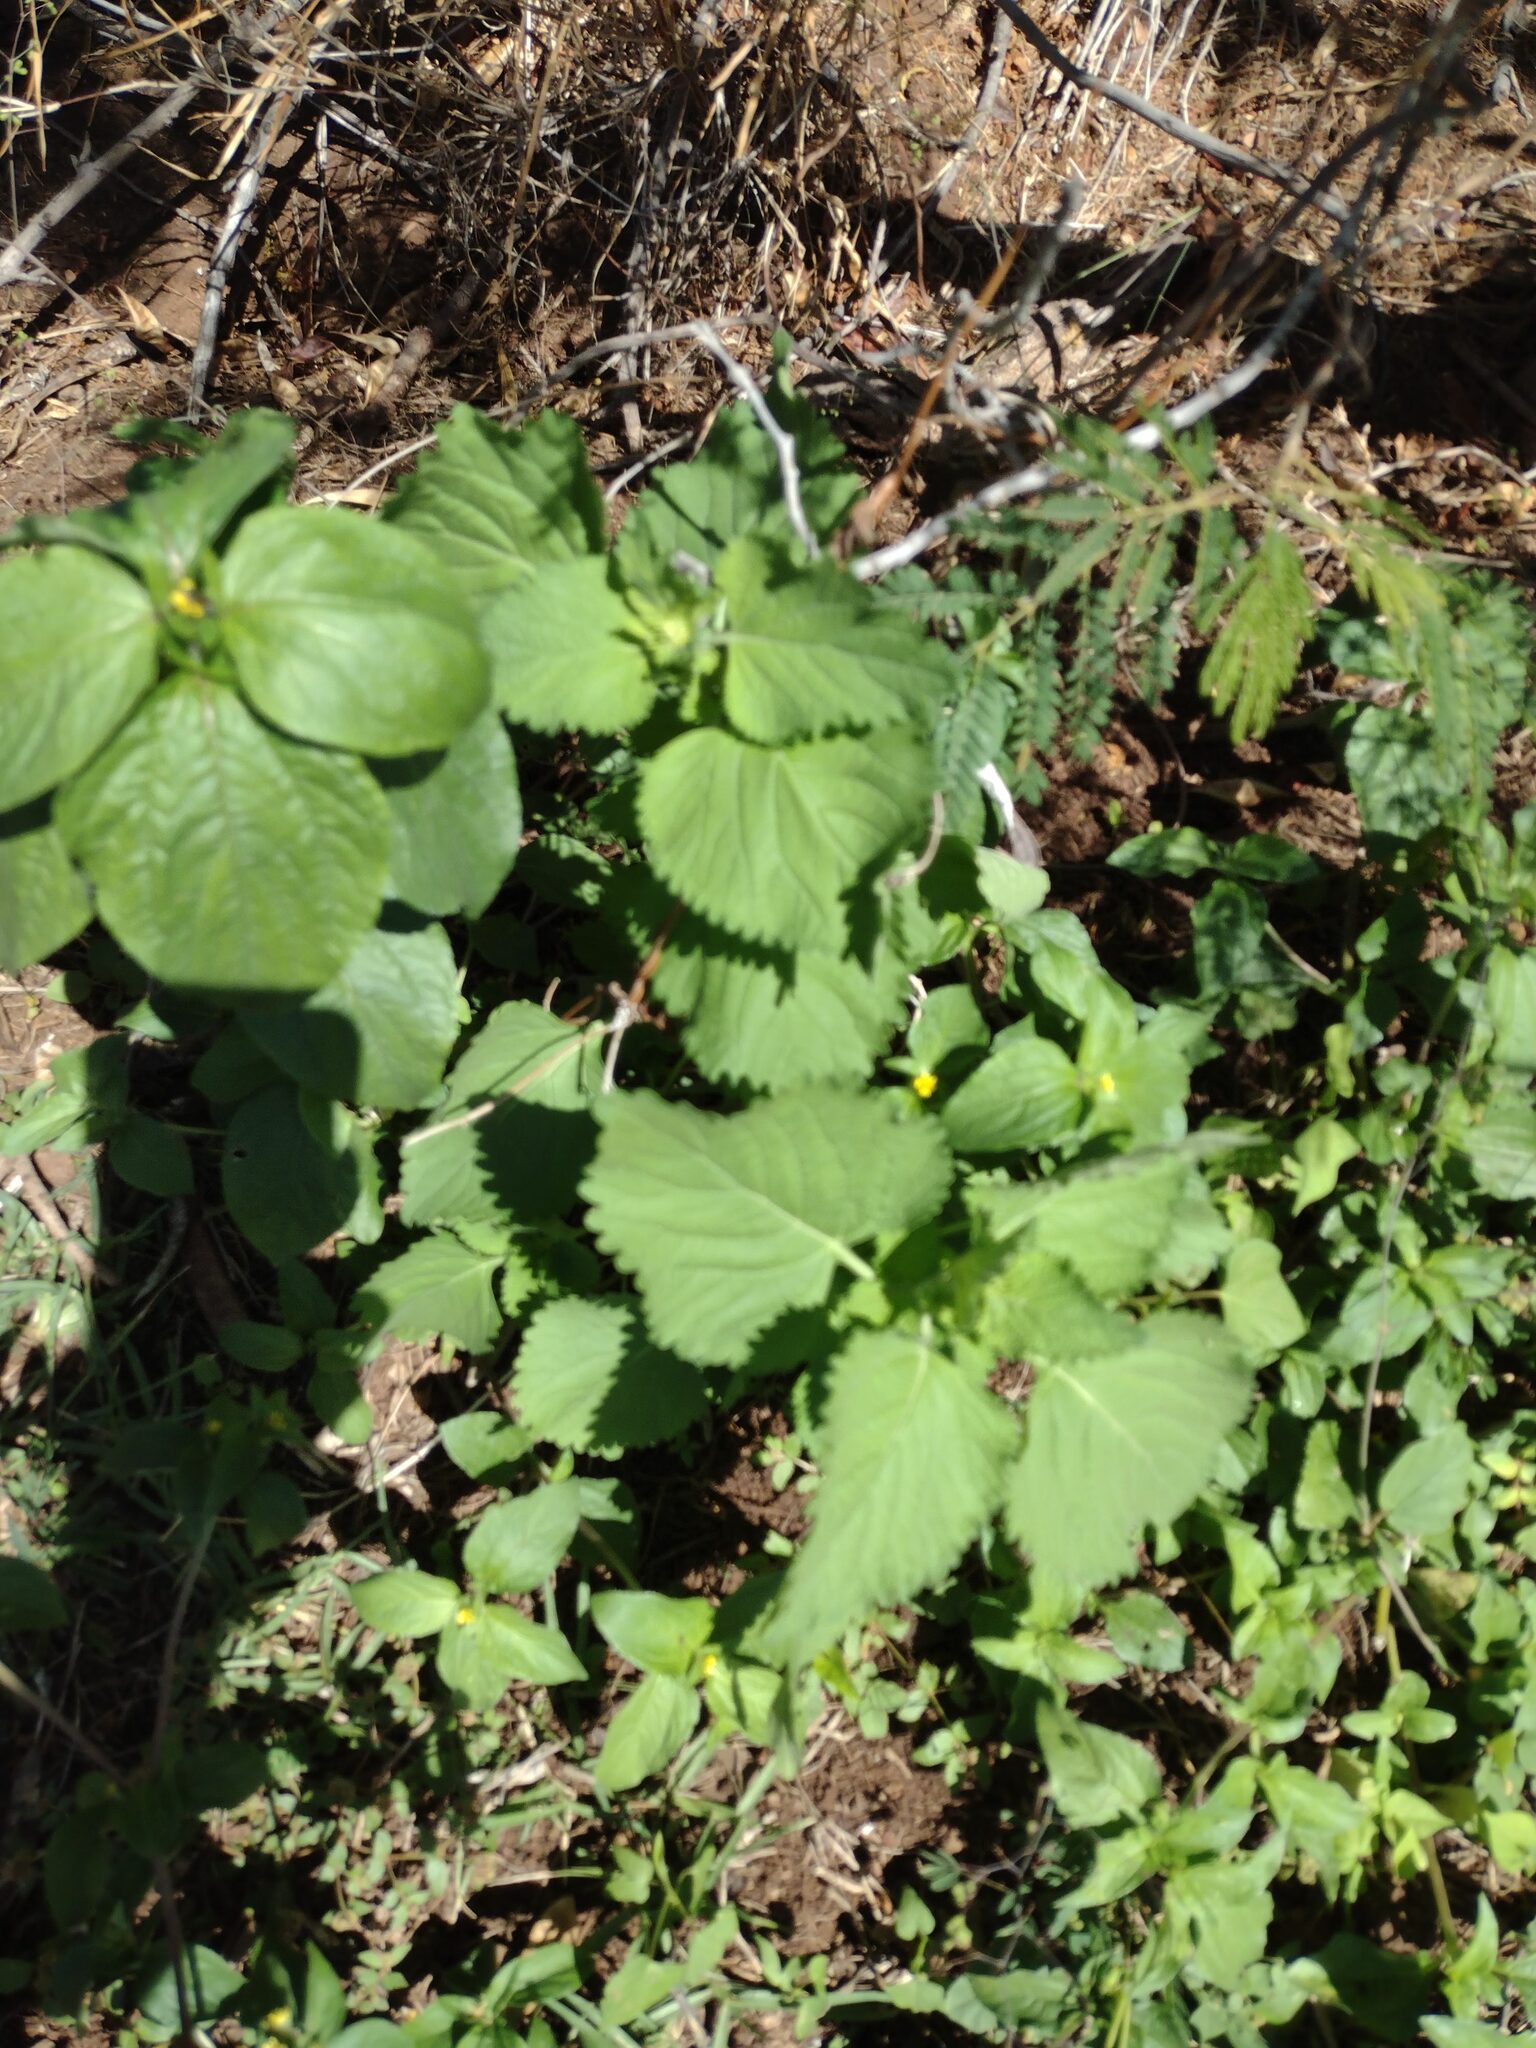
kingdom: Plantae
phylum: Tracheophyta
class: Magnoliopsida
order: Lamiales
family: Lamiaceae
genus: Leonotis
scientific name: Leonotis nepetifolia
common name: Christmas candlestick
